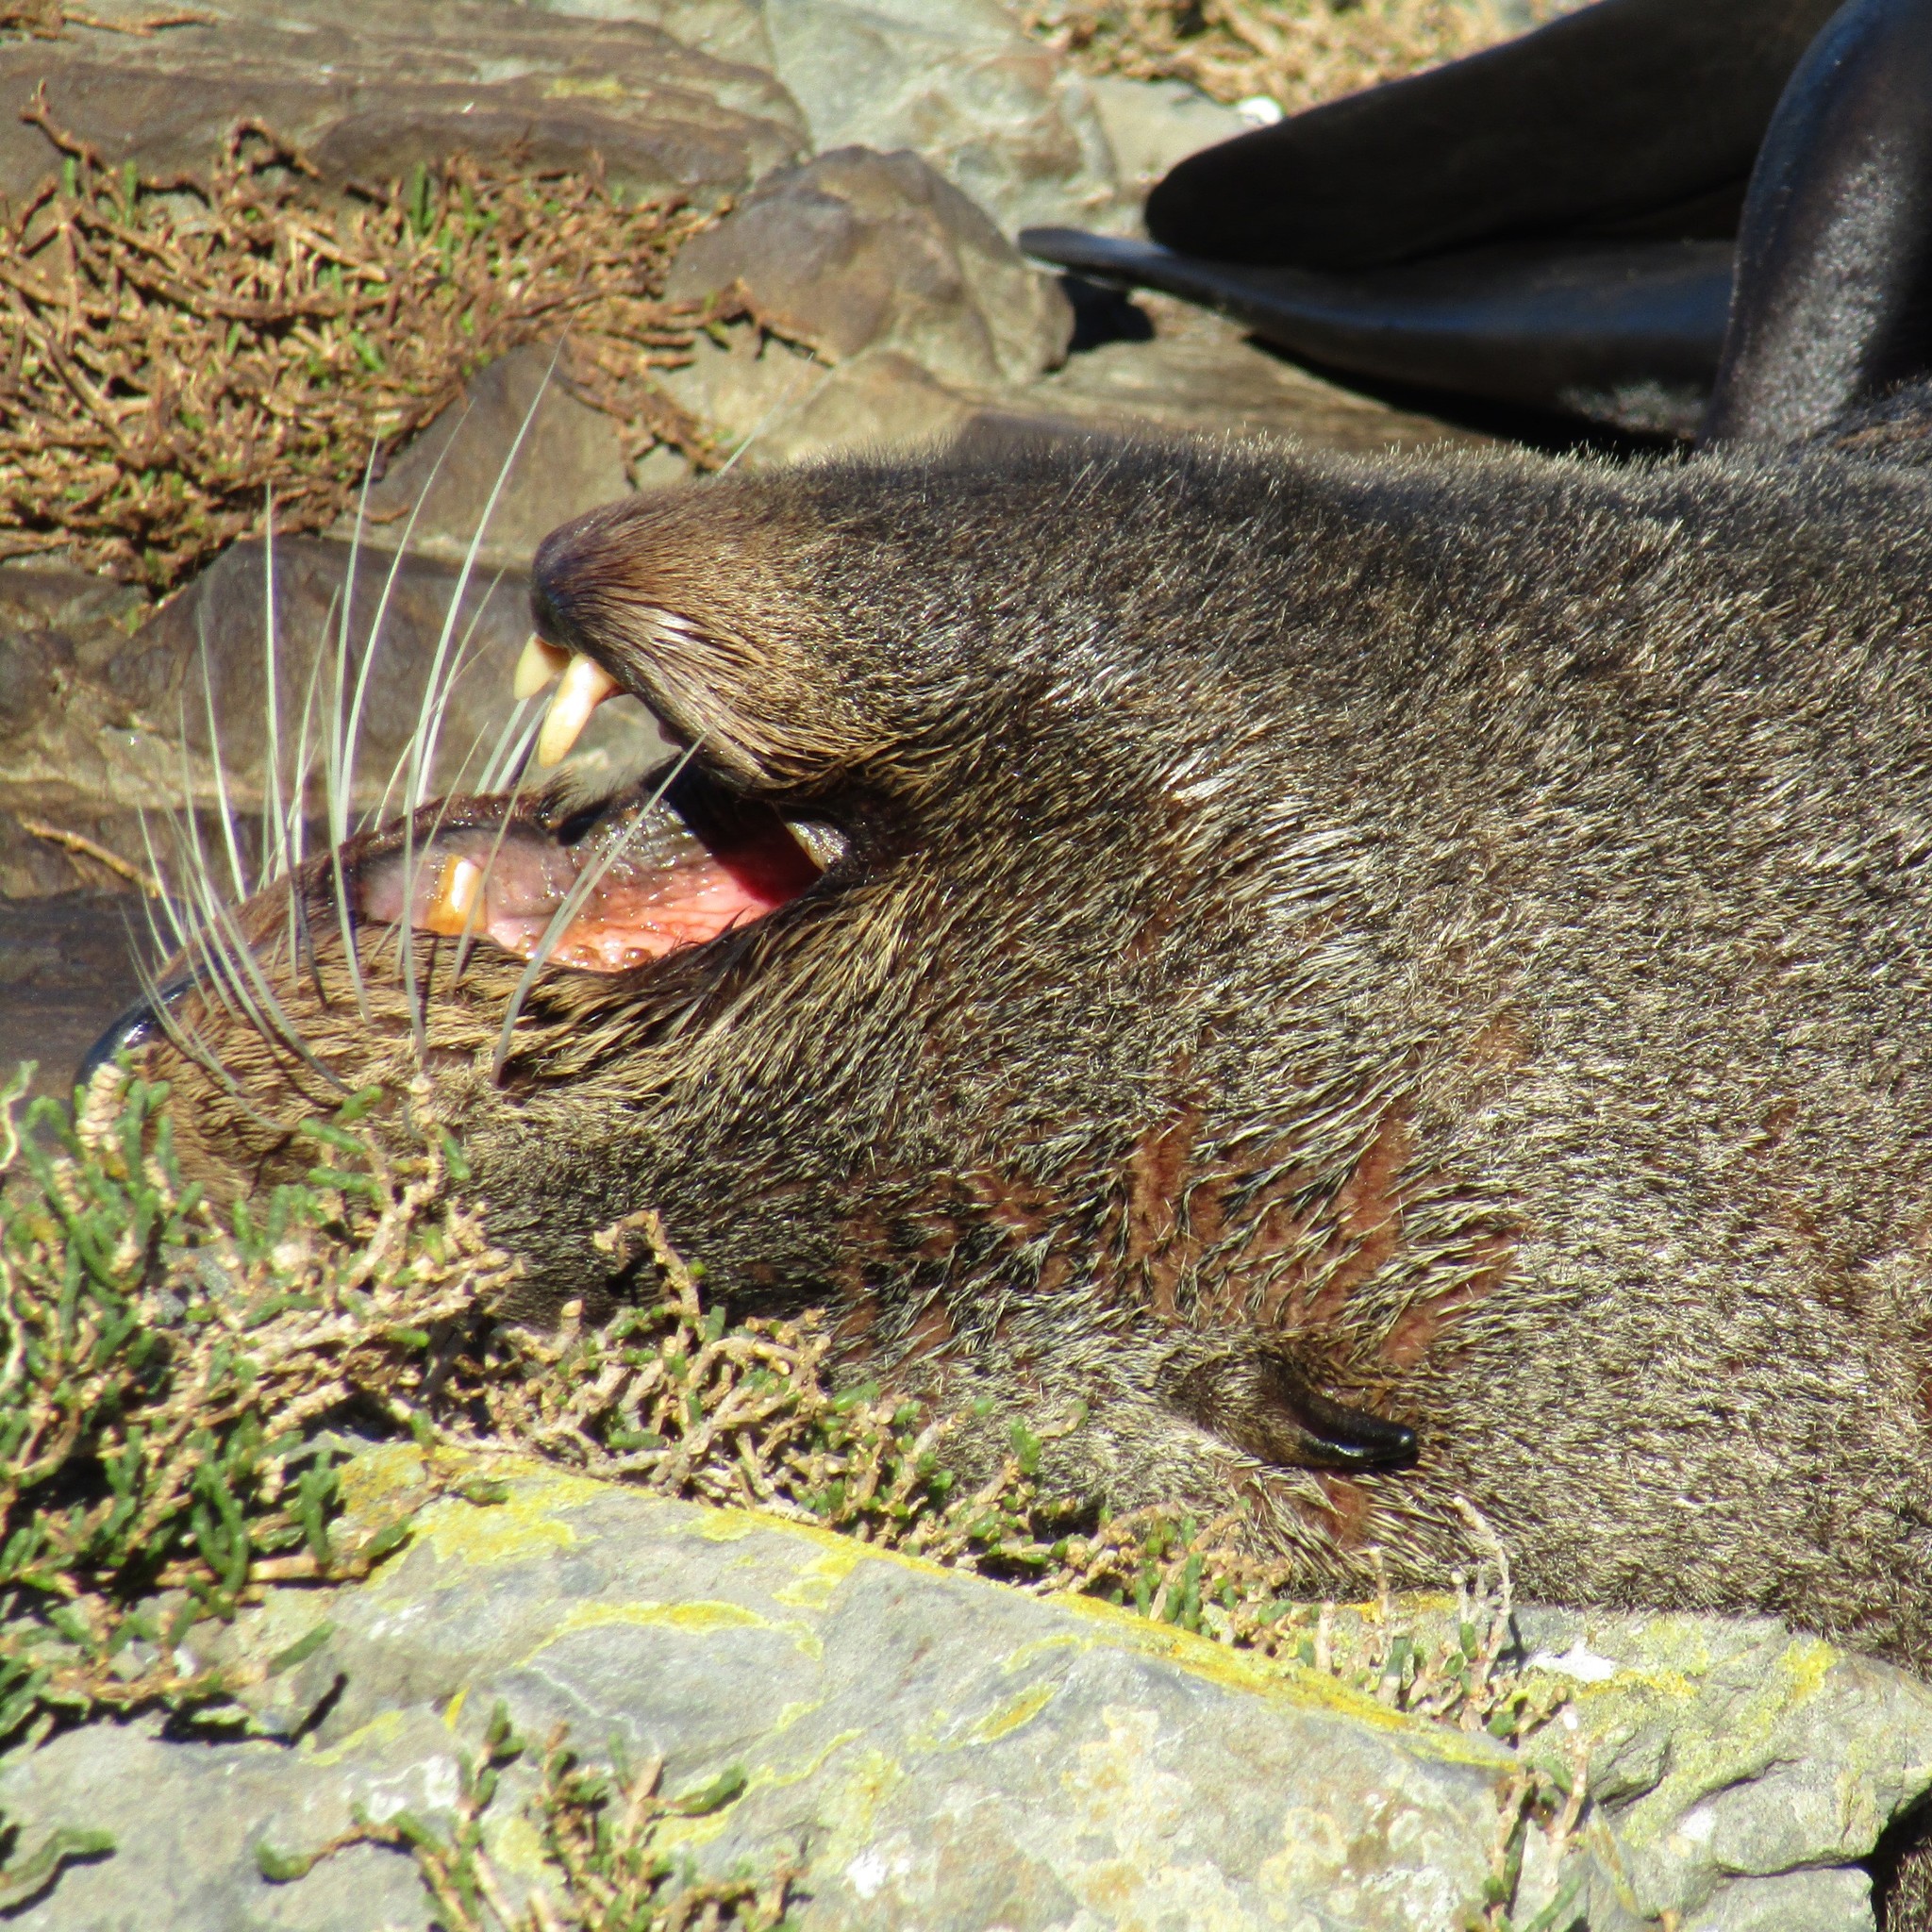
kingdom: Animalia
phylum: Chordata
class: Mammalia
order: Carnivora
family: Otariidae
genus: Arctocephalus
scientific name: Arctocephalus forsteri
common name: New zealand fur seal
